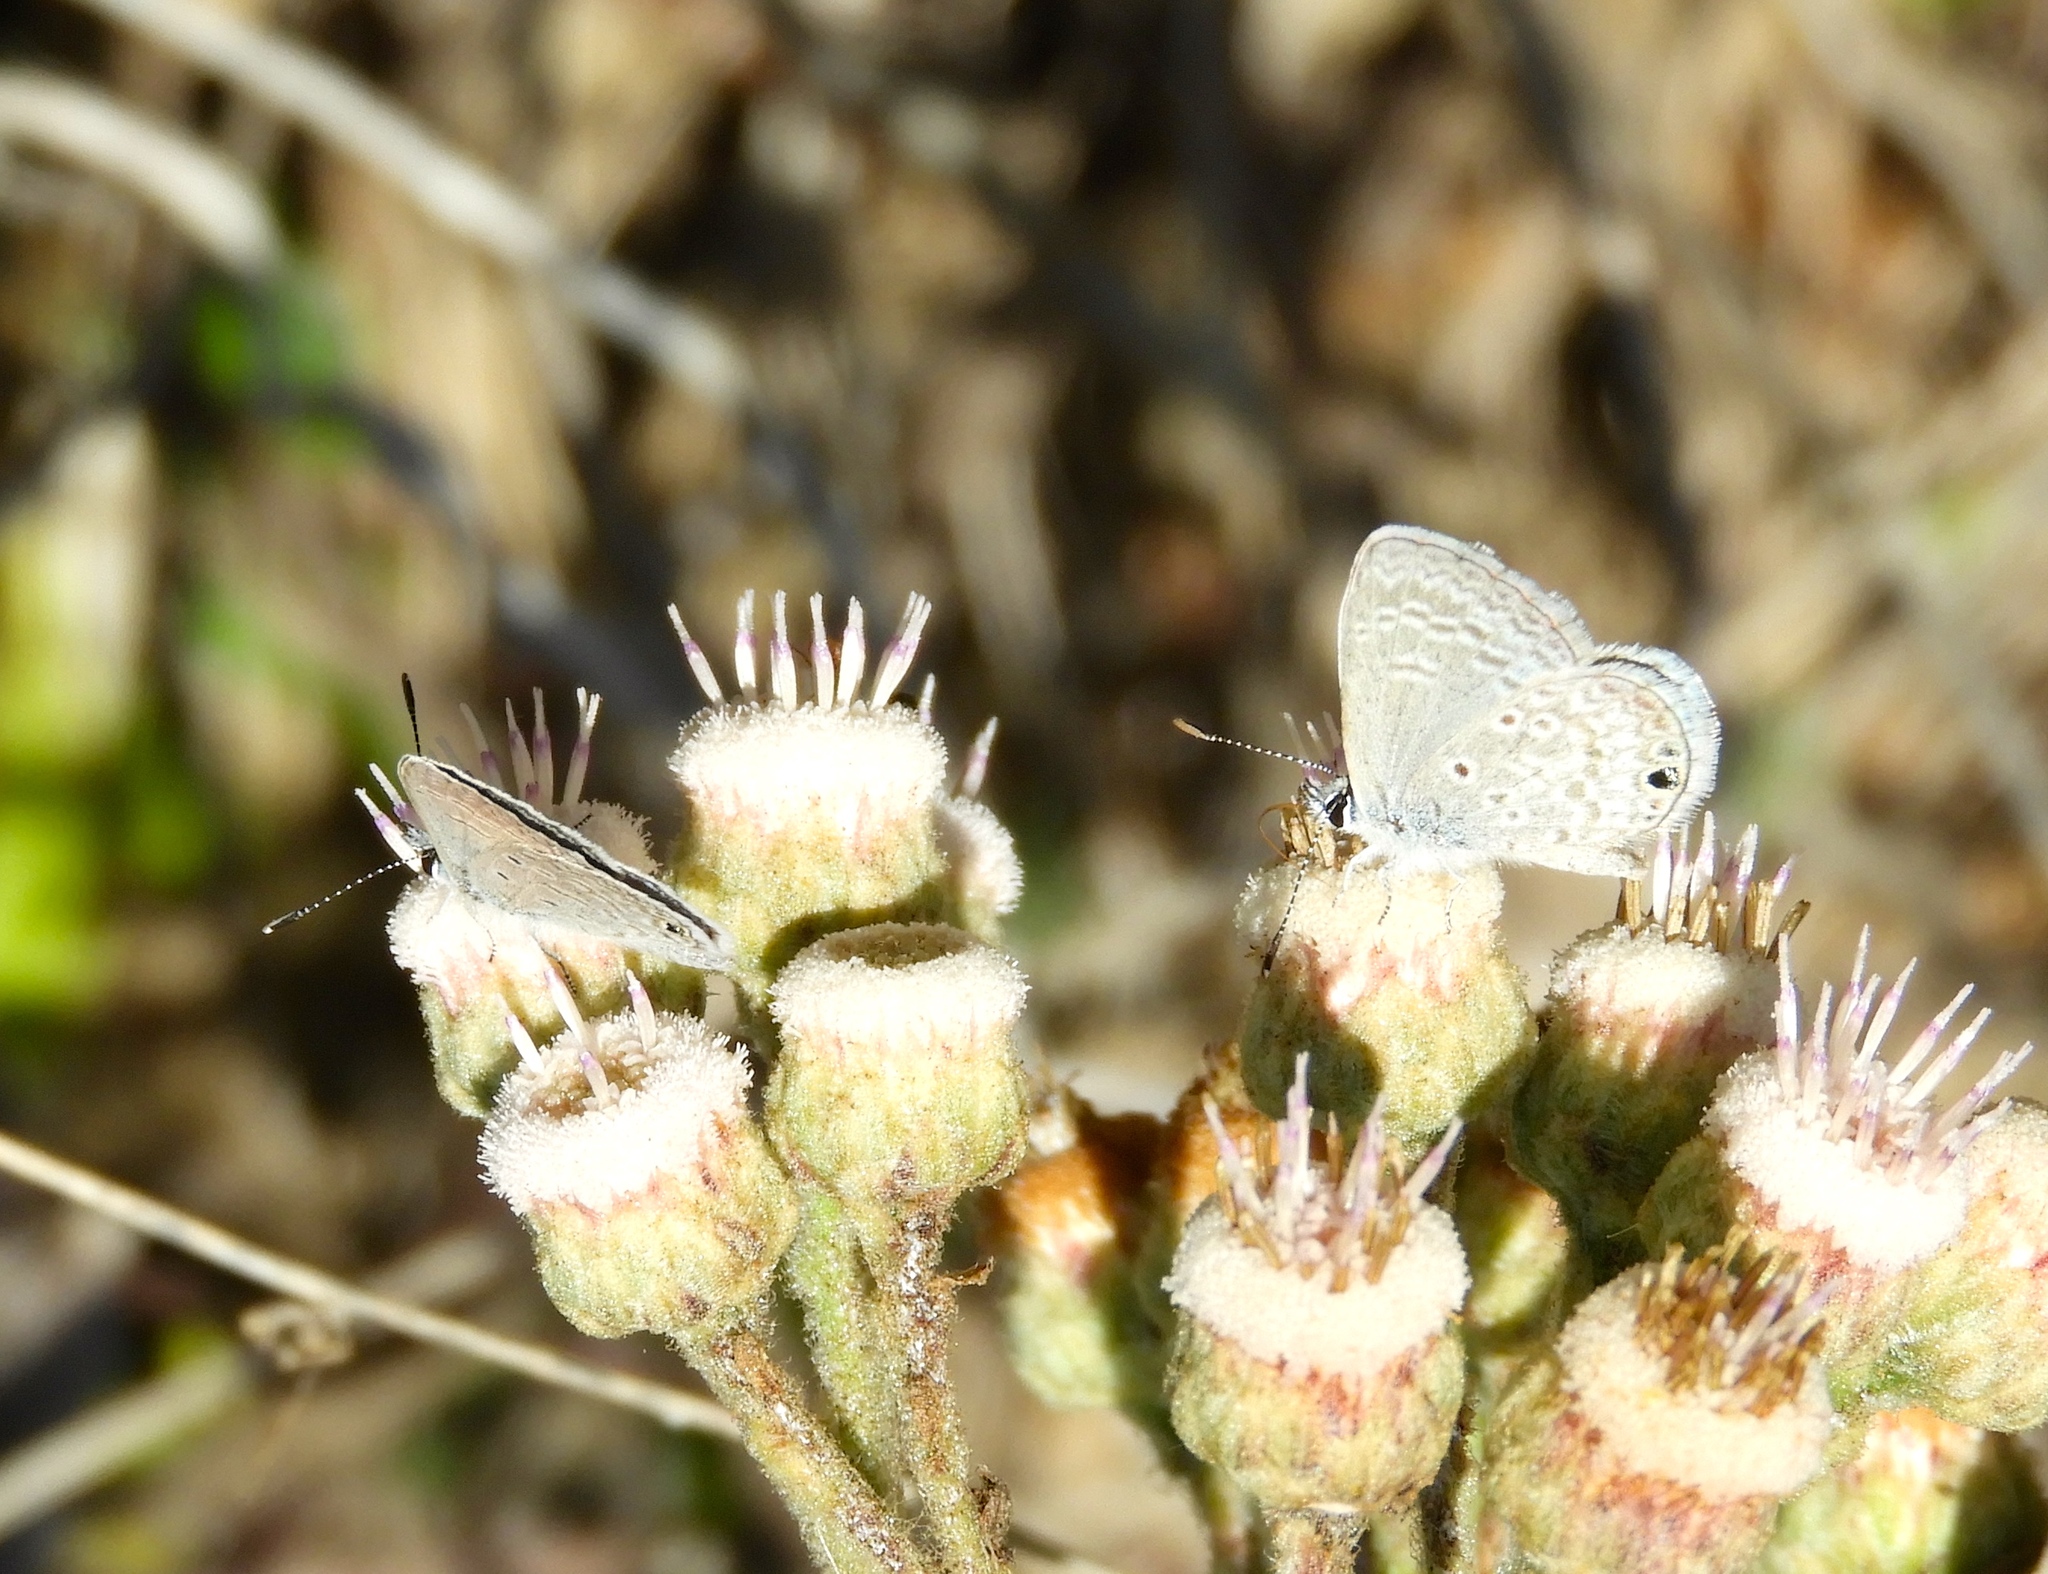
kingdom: Animalia
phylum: Arthropoda
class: Insecta
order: Lepidoptera
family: Lycaenidae
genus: Hemiargus
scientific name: Hemiargus ceraunus
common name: Ceraunus blue
